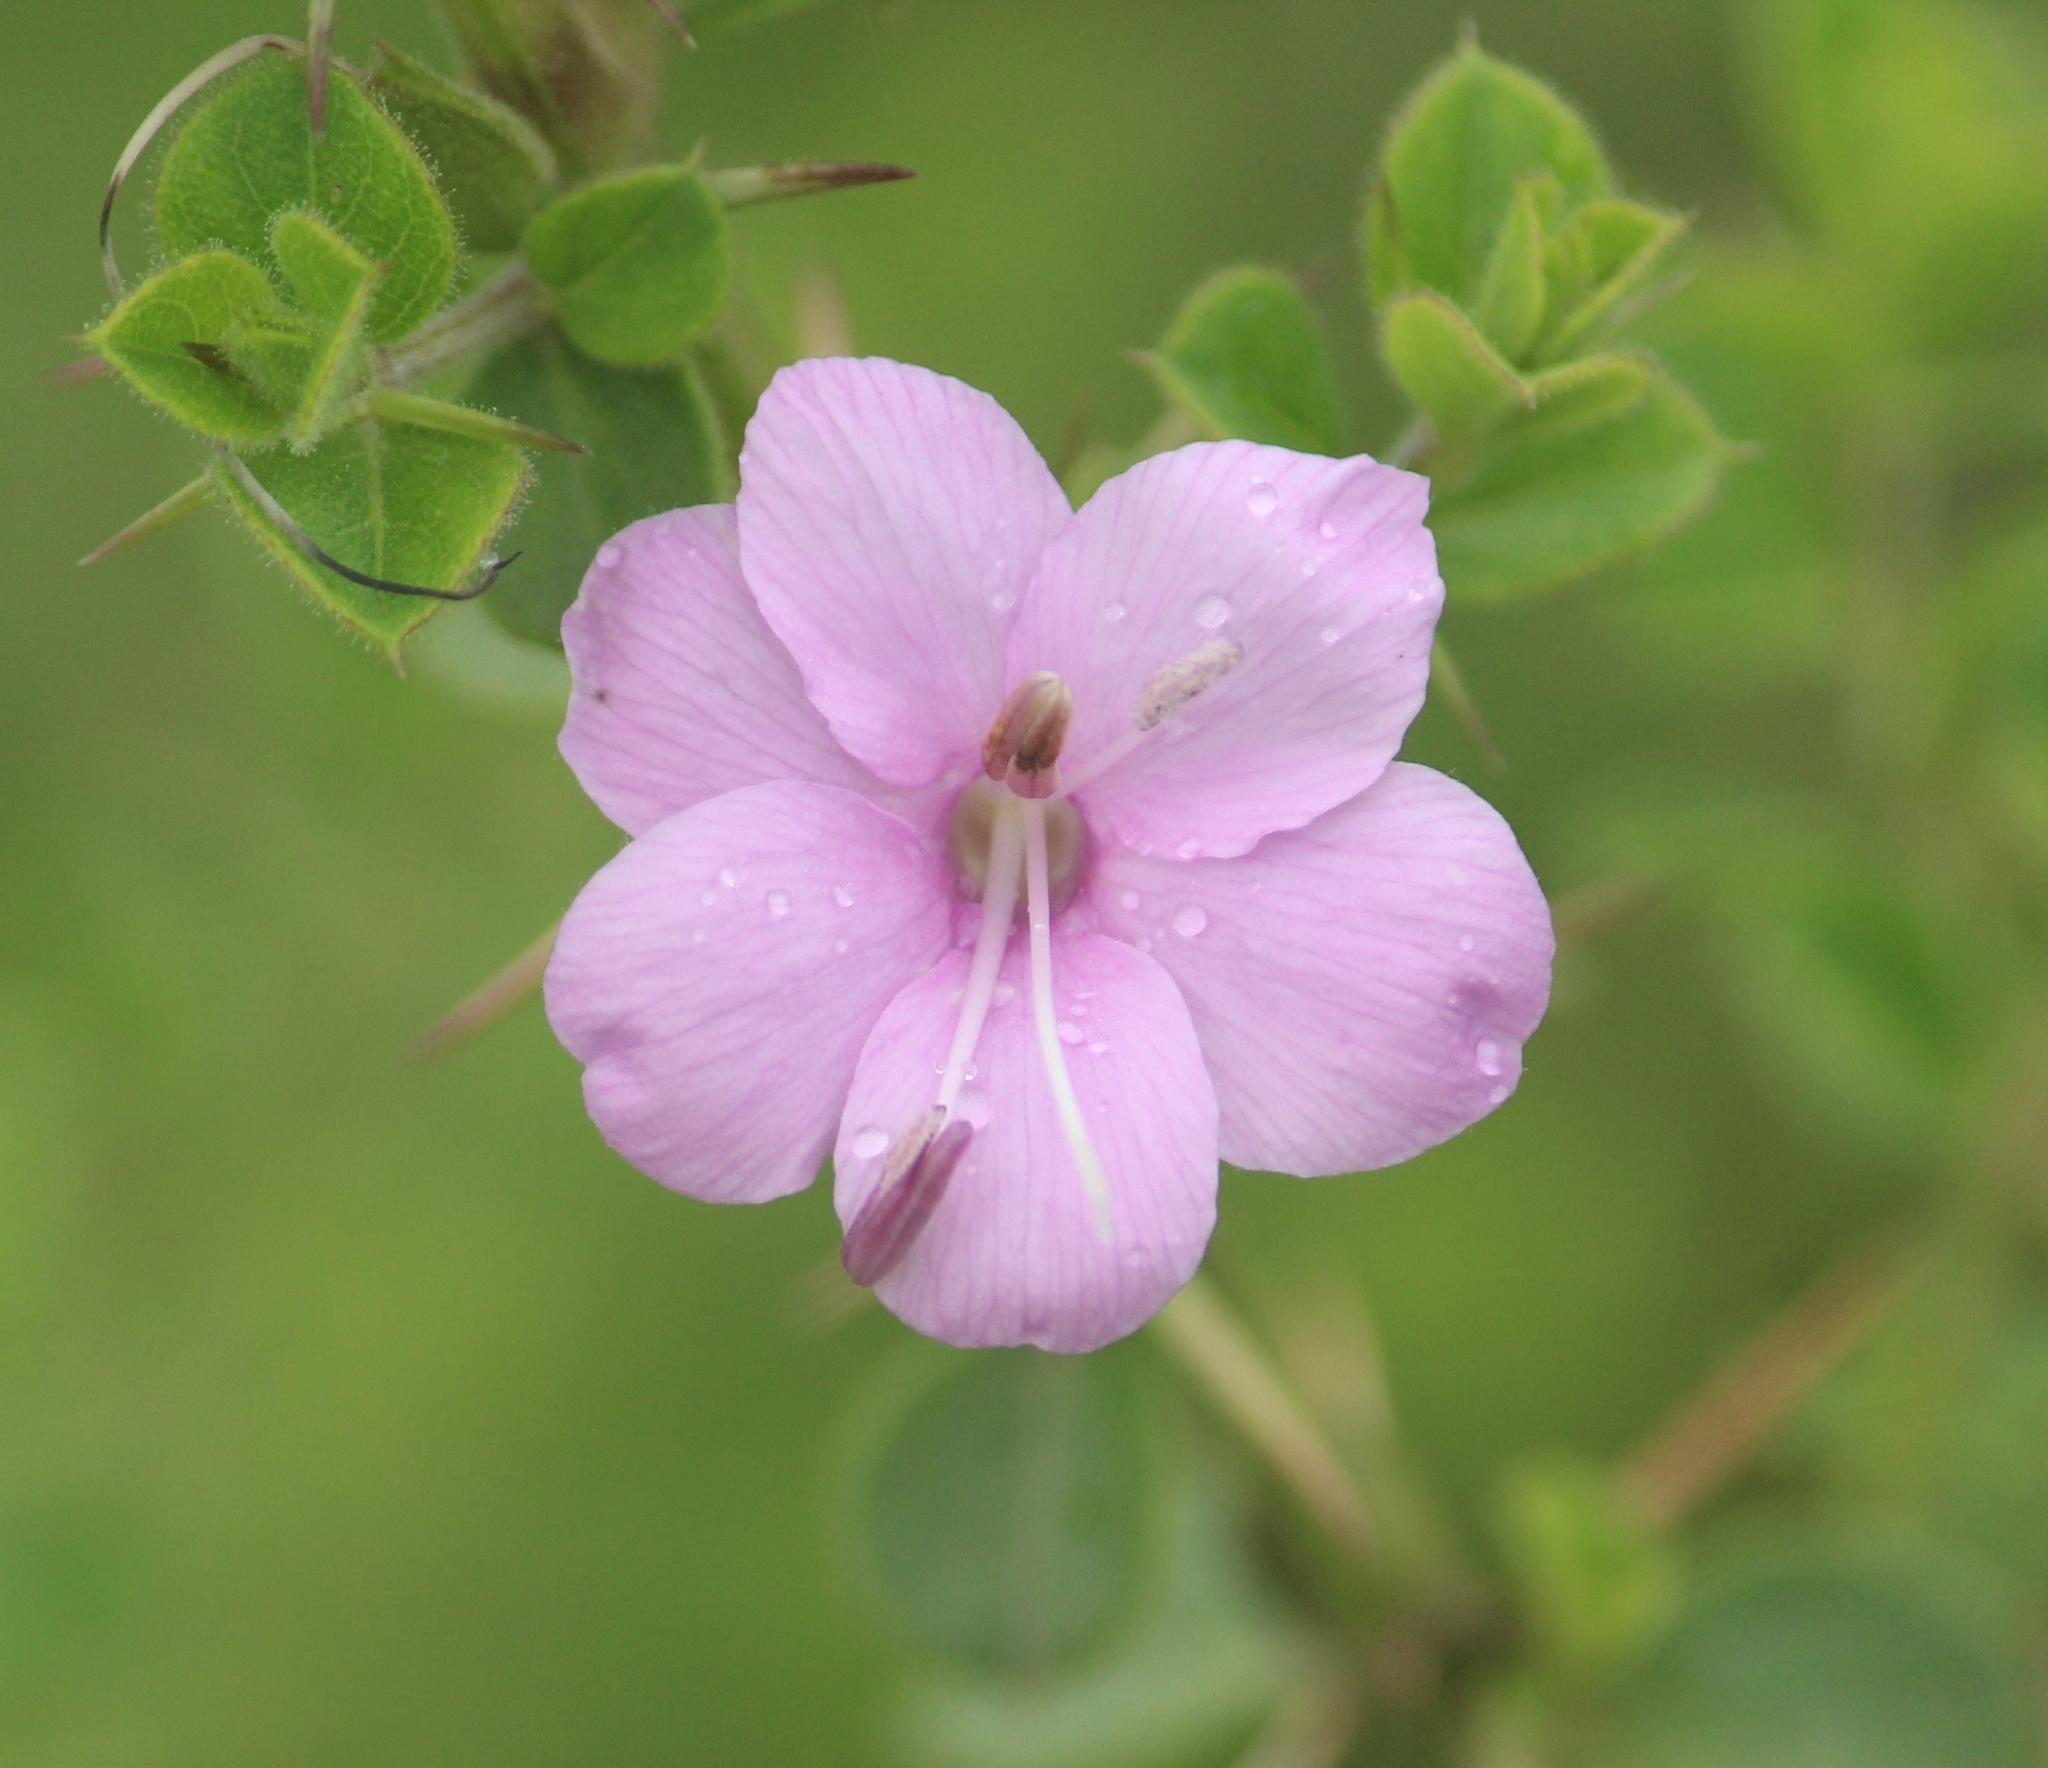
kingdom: Plantae
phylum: Tracheophyta
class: Magnoliopsida
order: Lamiales
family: Acanthaceae
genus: Barleria
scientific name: Barleria mysorensis
